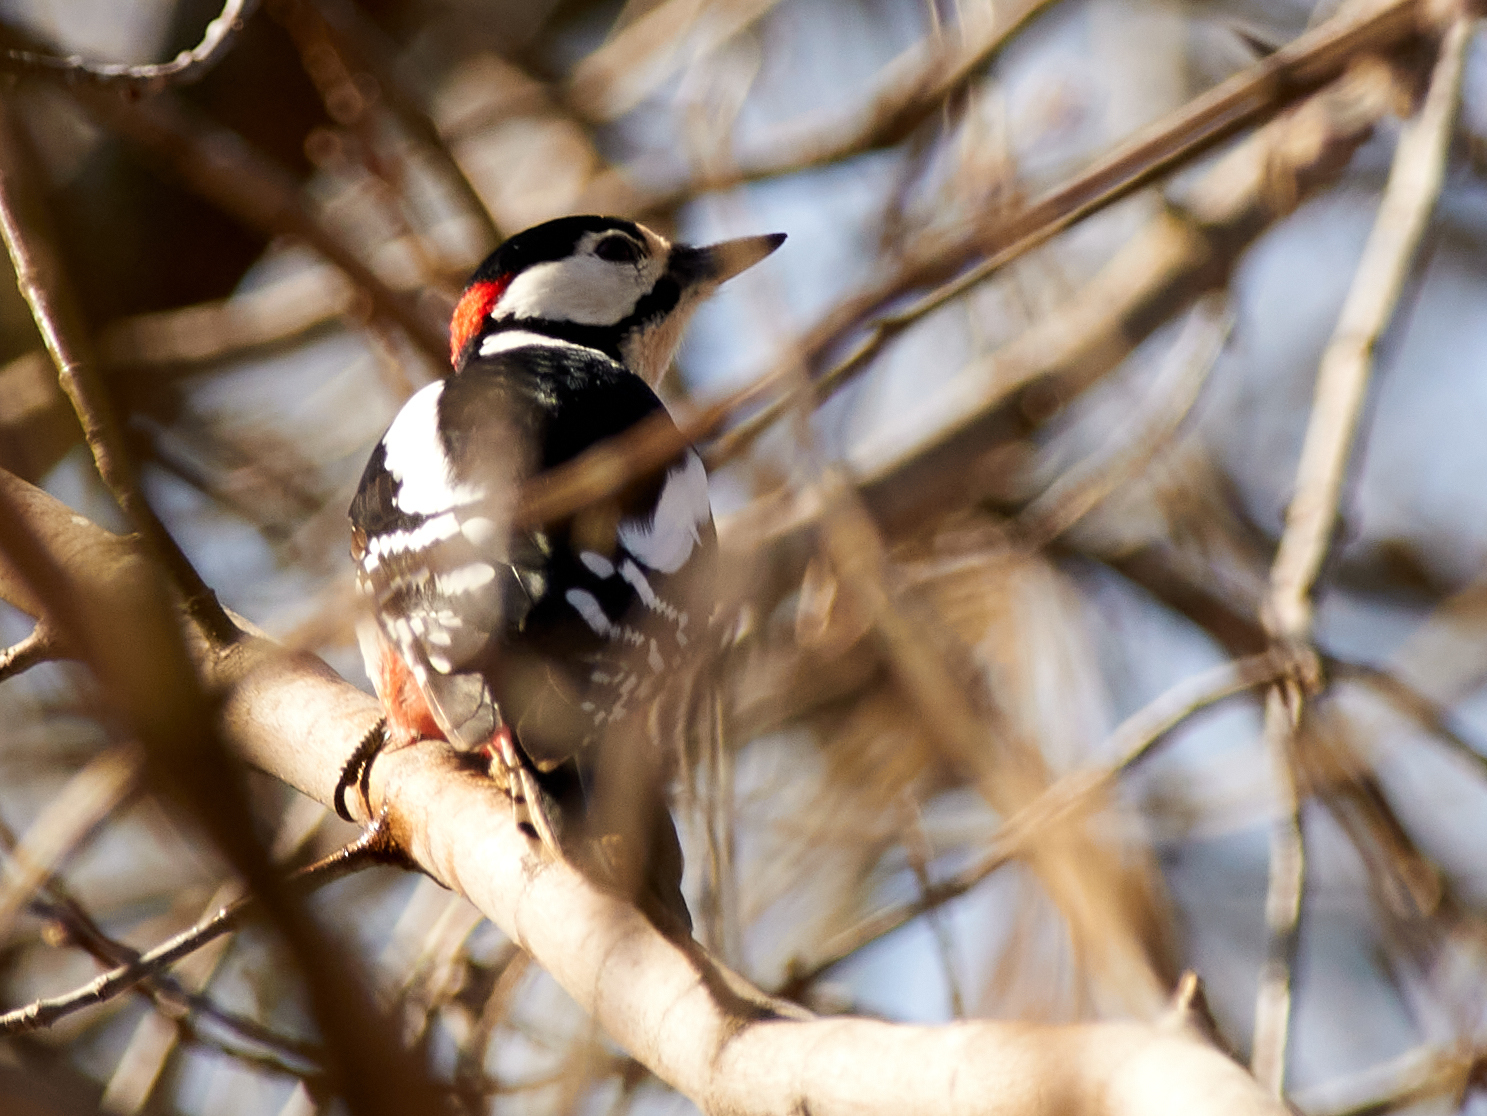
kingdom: Animalia
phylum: Chordata
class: Aves
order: Piciformes
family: Picidae
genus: Dendrocopos
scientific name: Dendrocopos major
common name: Great spotted woodpecker
